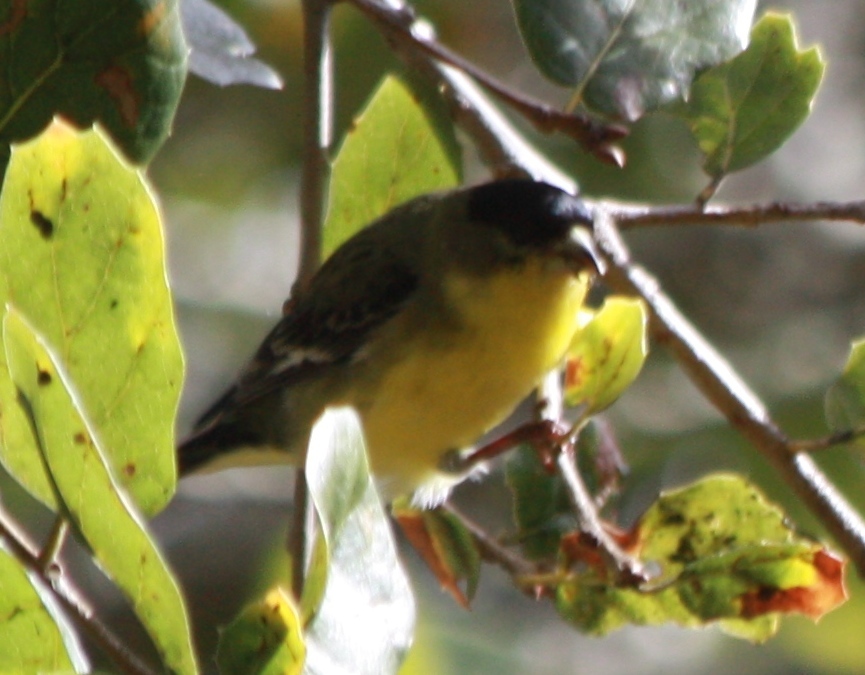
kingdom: Animalia
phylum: Chordata
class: Aves
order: Passeriformes
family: Fringillidae
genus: Spinus
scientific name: Spinus psaltria
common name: Lesser goldfinch
